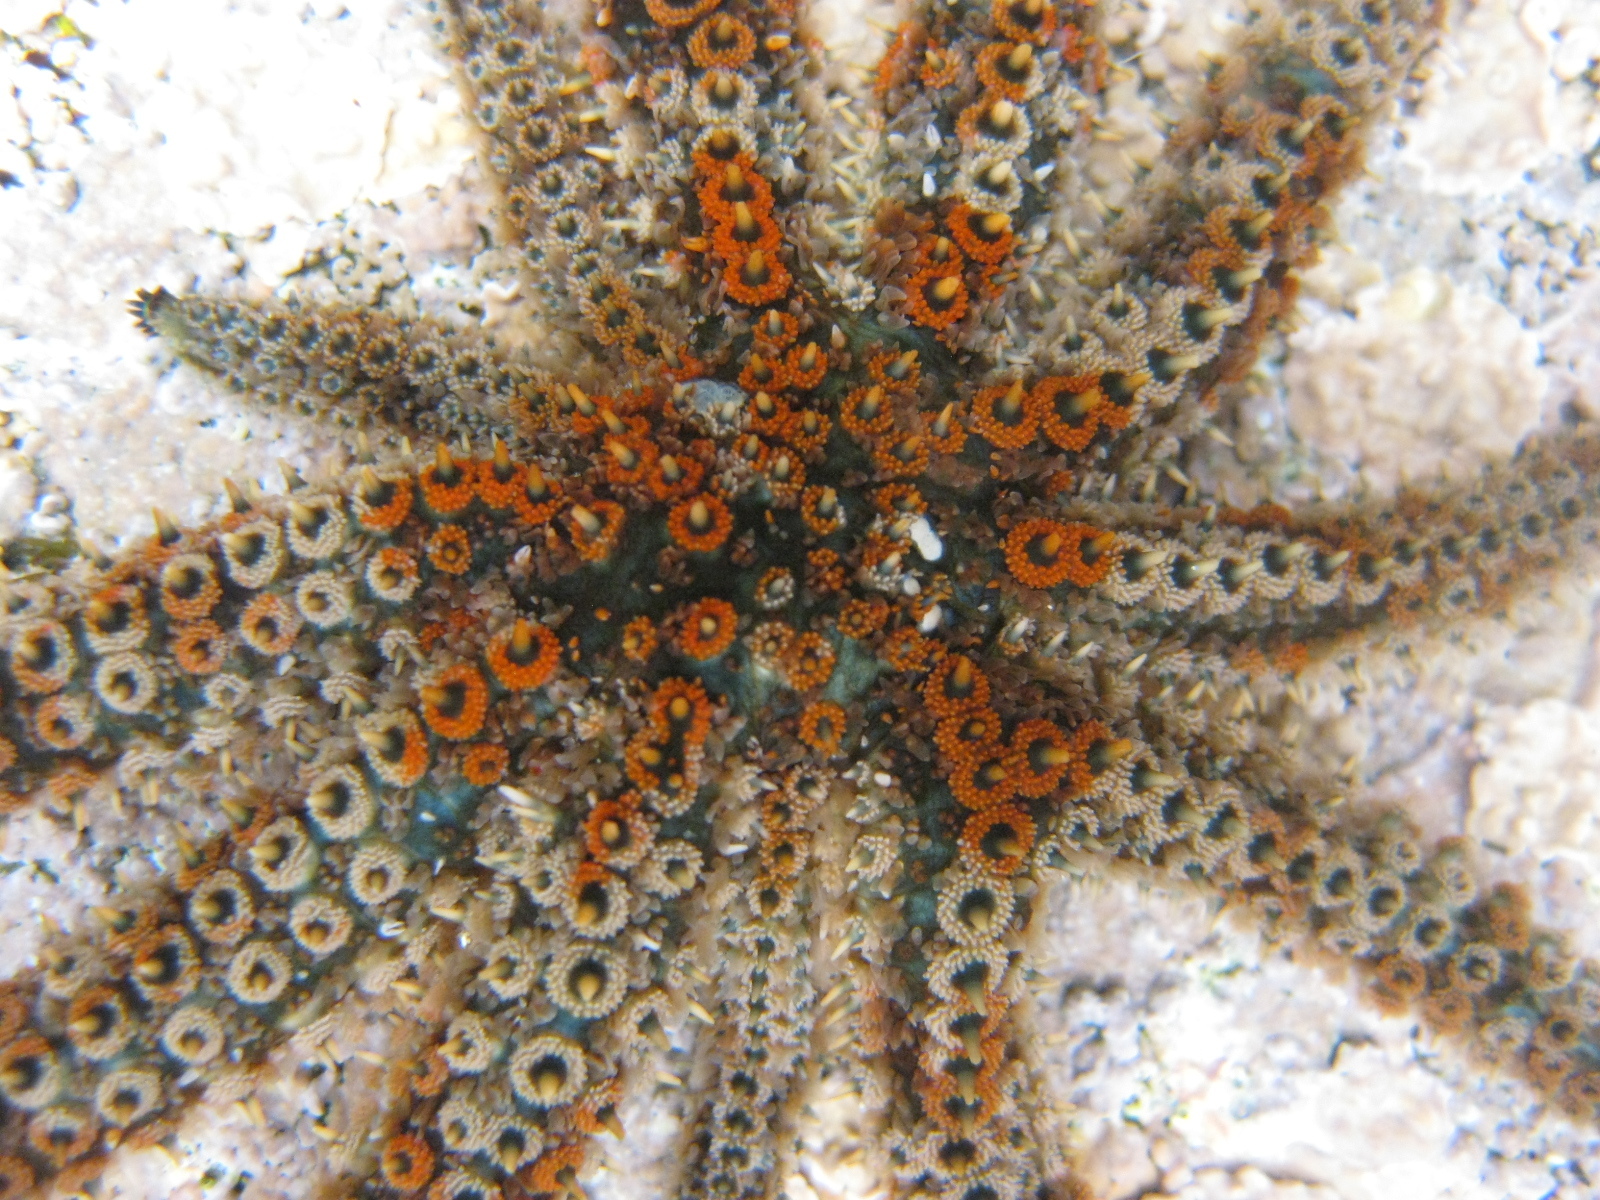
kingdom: Animalia
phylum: Echinodermata
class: Asteroidea
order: Forcipulatida
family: Asteriidae
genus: Coscinasterias
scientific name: Coscinasterias muricata
